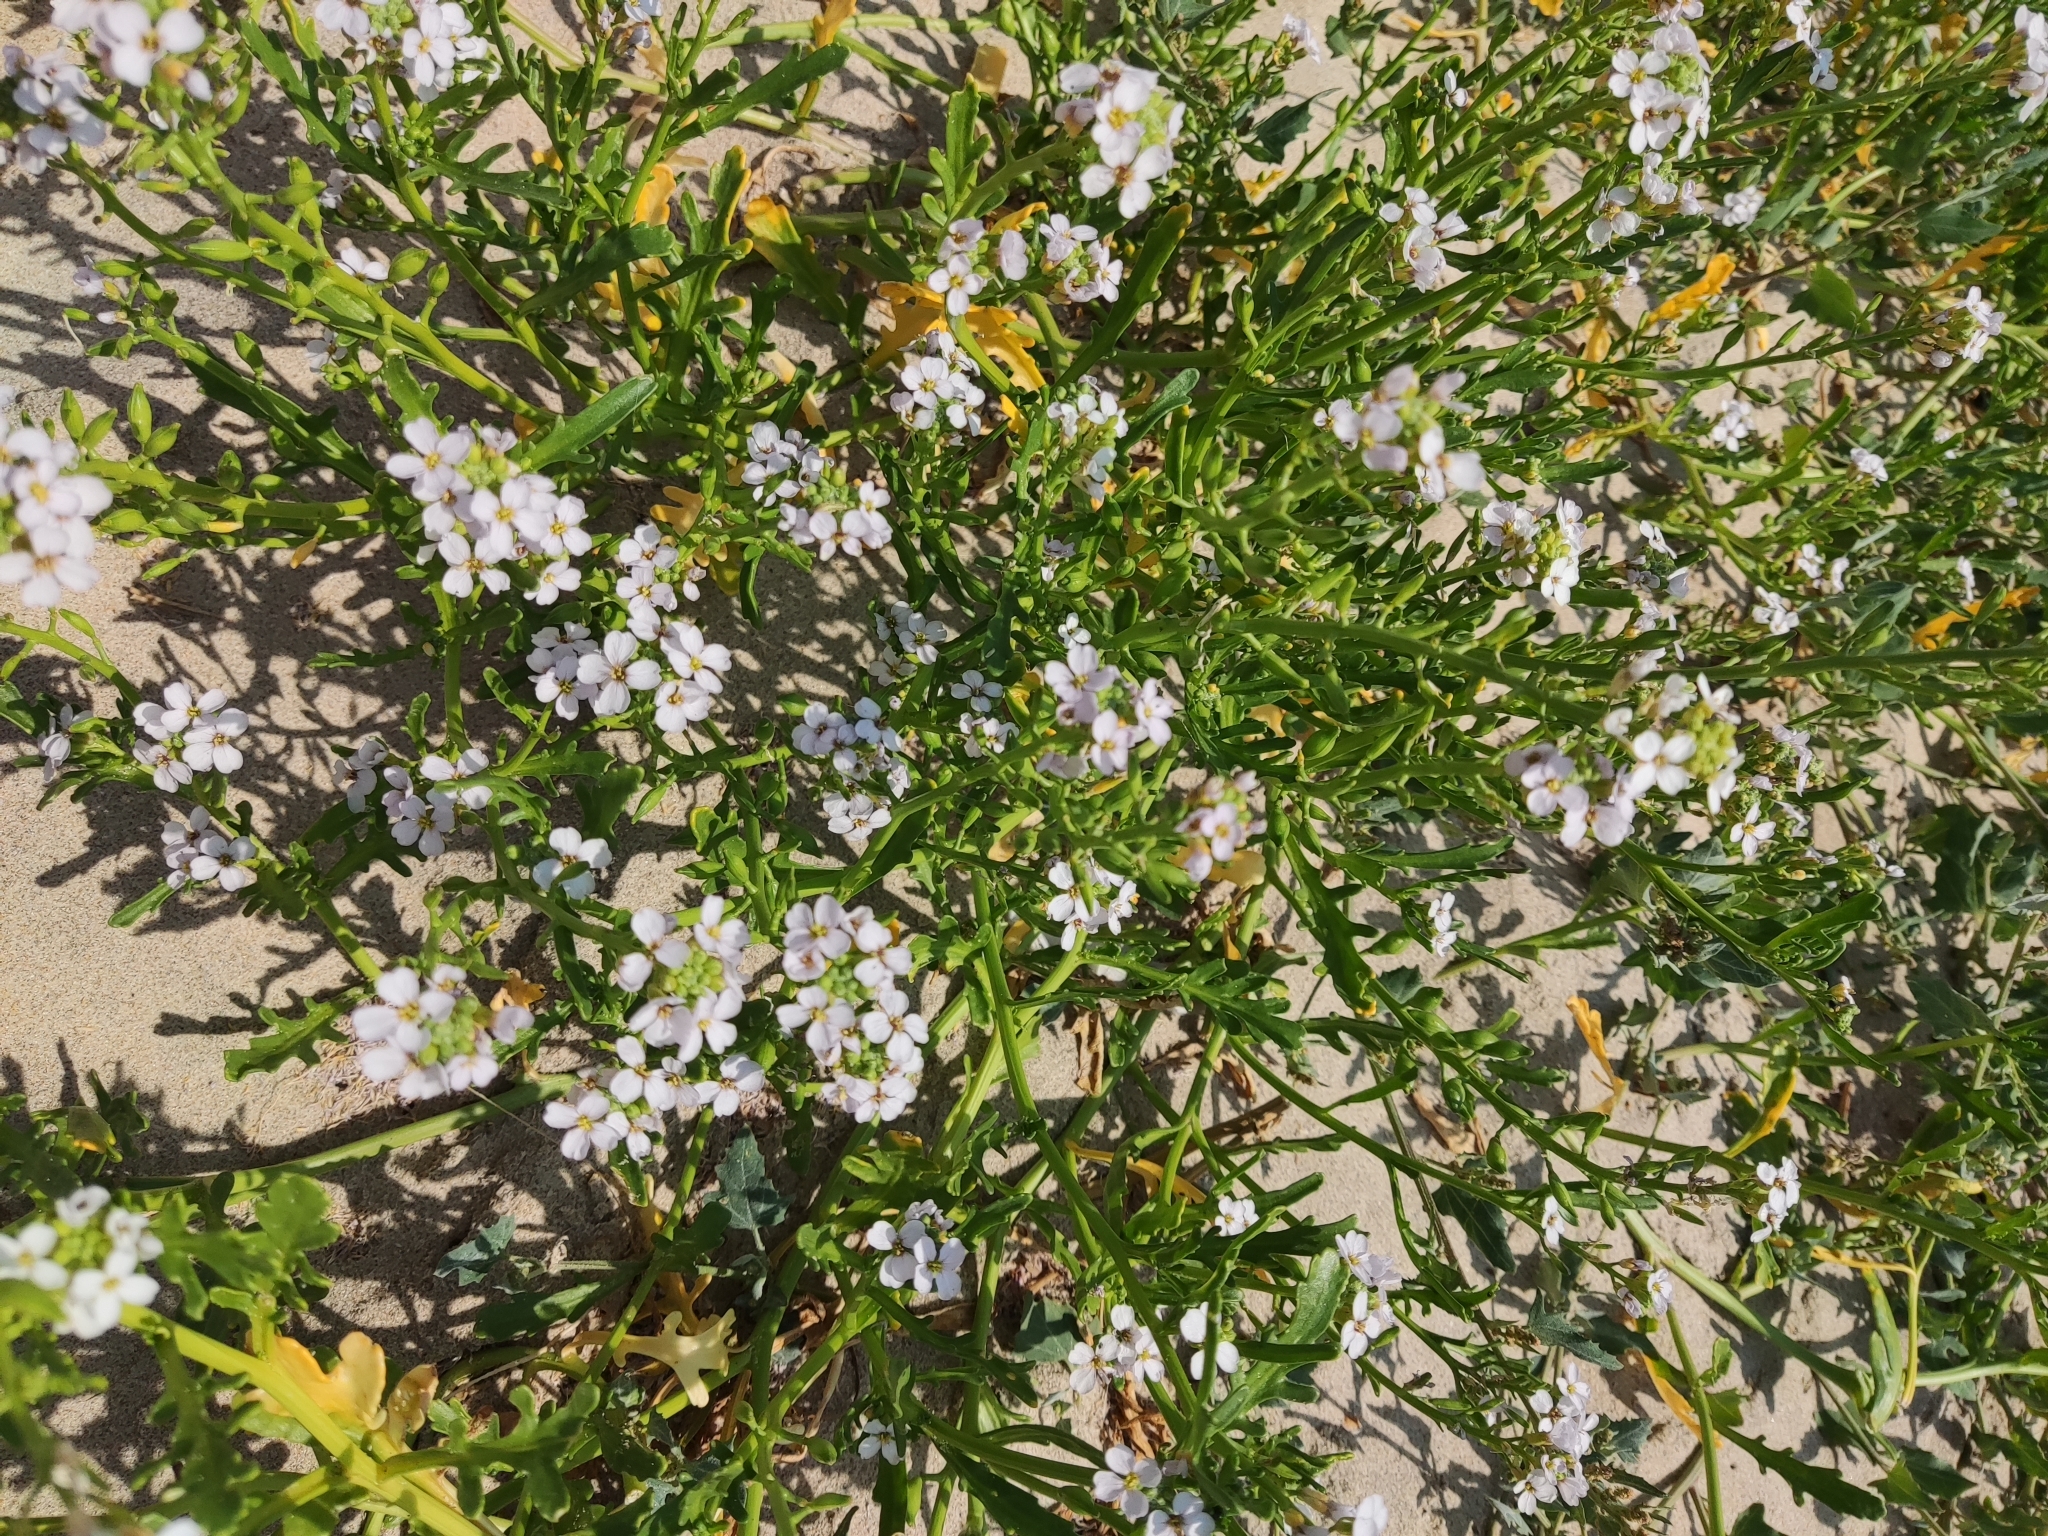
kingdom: Plantae
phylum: Tracheophyta
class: Magnoliopsida
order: Brassicales
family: Brassicaceae
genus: Cakile
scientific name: Cakile maritima
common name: Sea rocket
